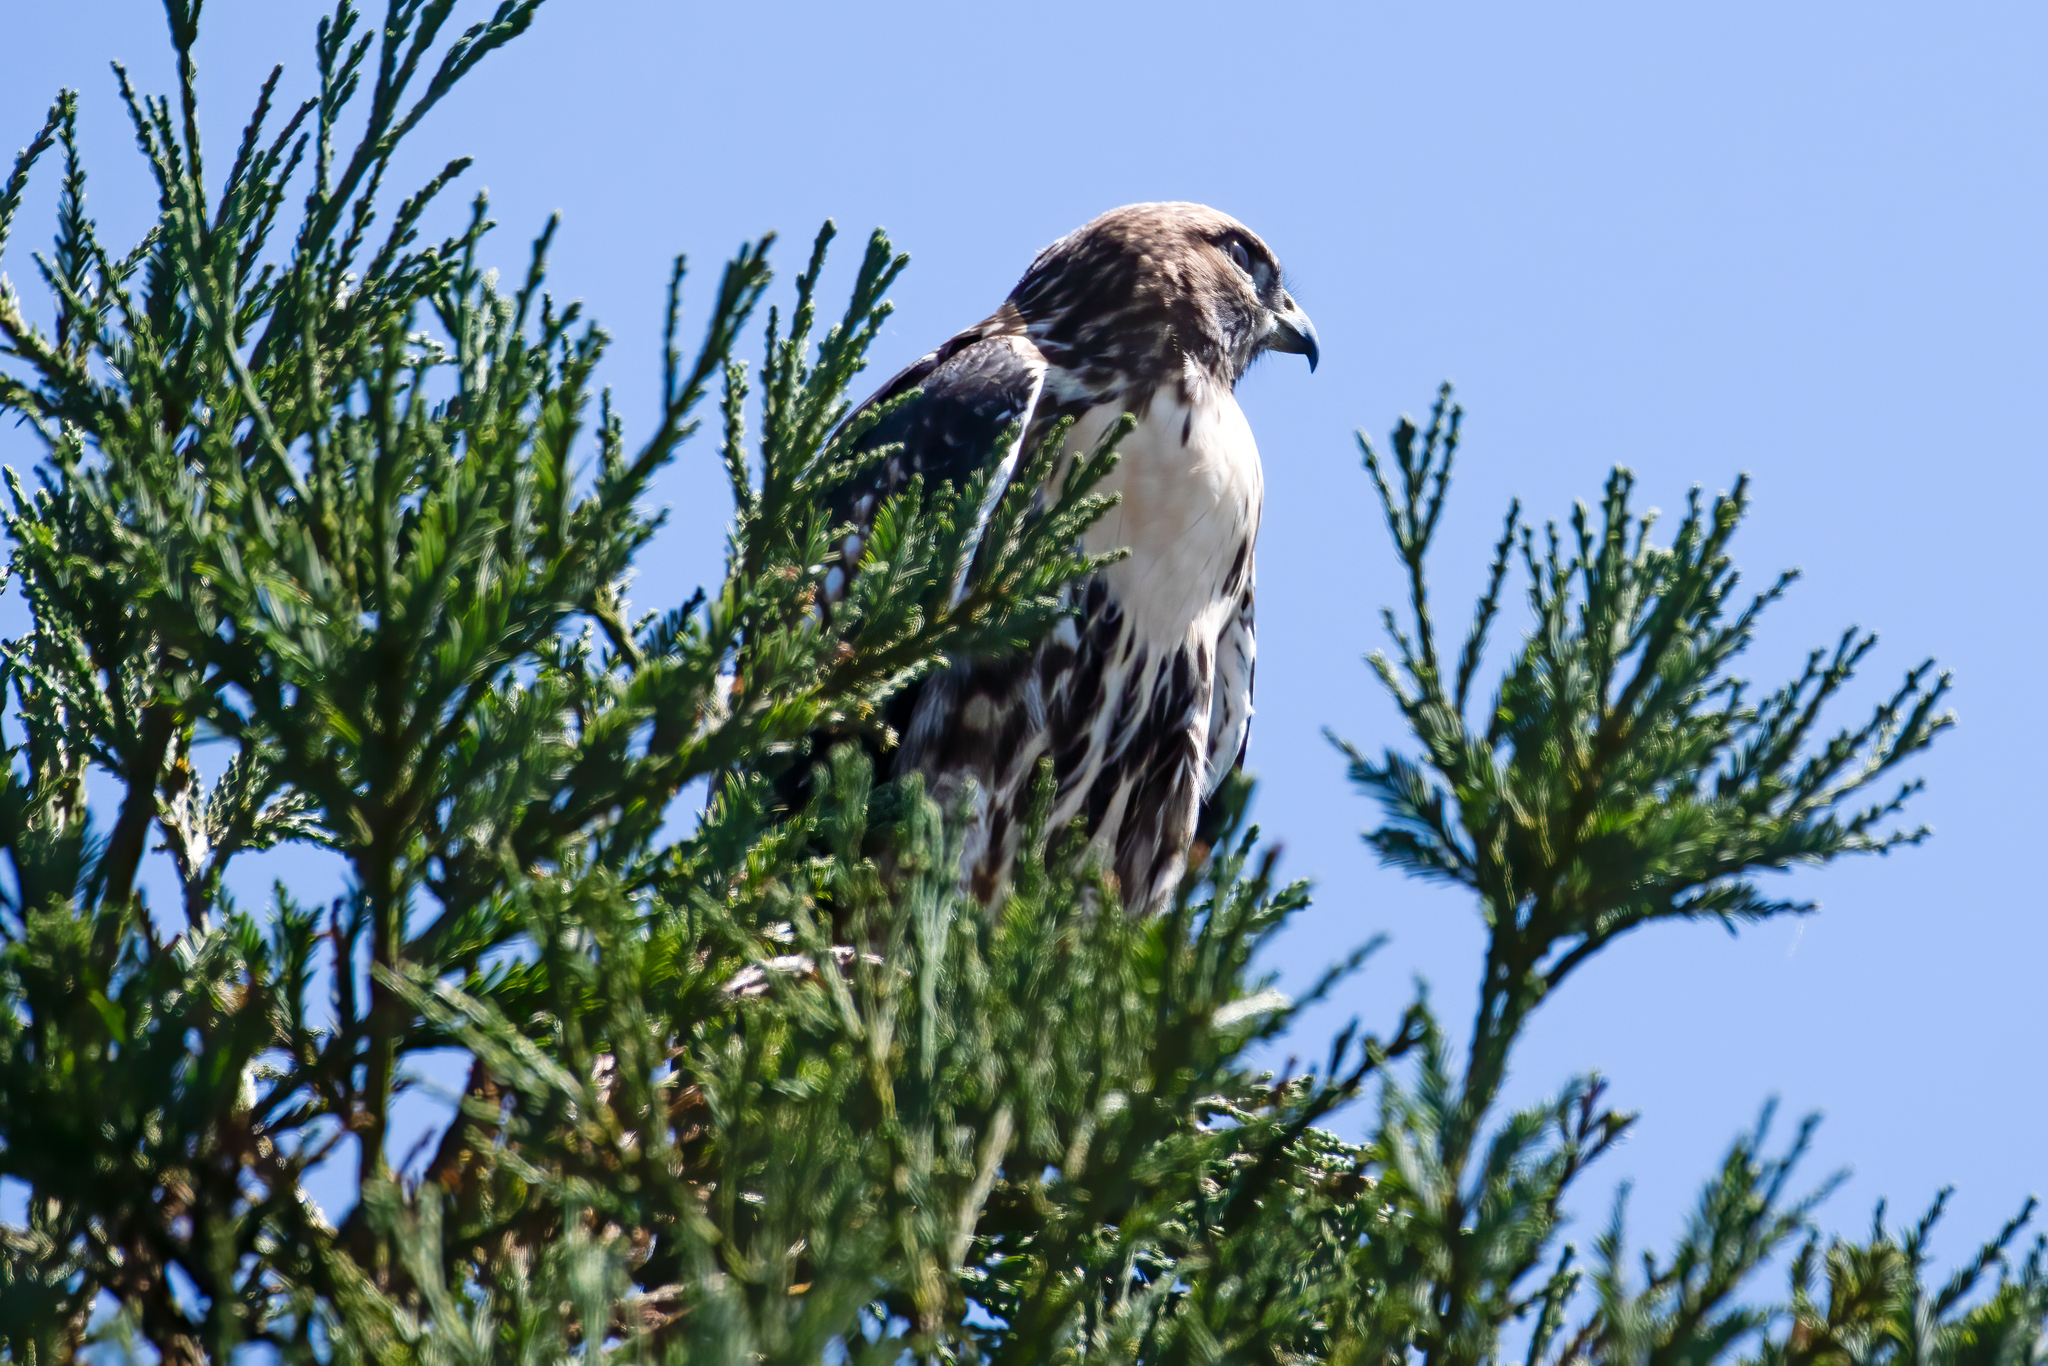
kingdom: Animalia
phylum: Chordata
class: Aves
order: Accipitriformes
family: Accipitridae
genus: Buteo
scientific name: Buteo jamaicensis
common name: Red-tailed hawk
